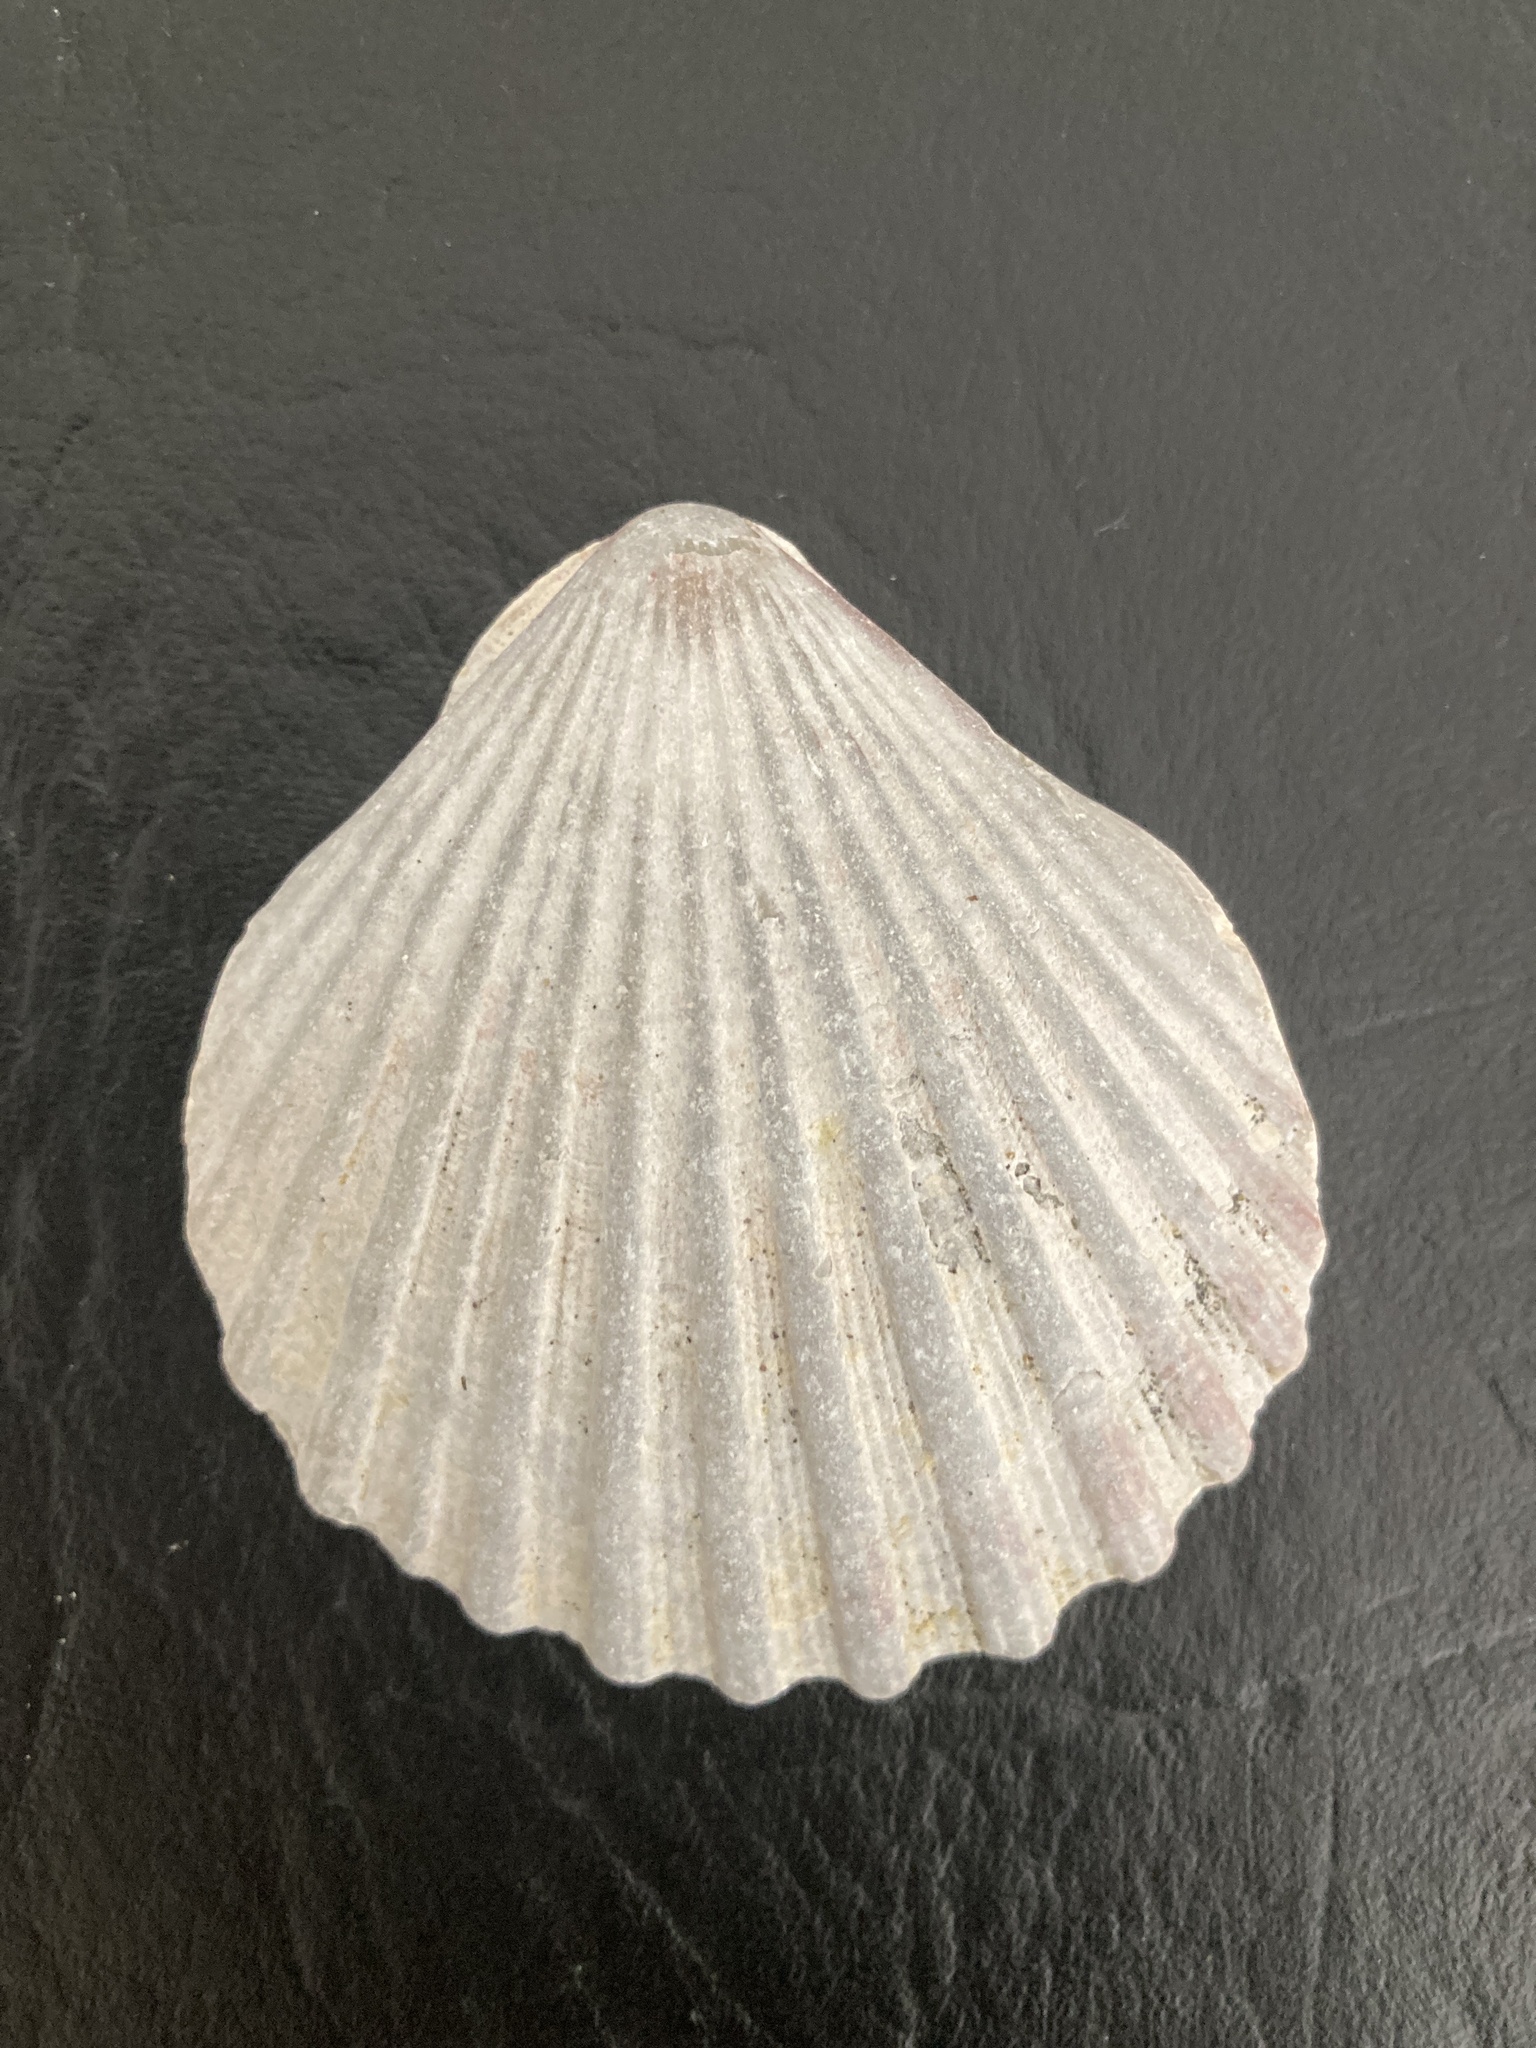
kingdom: Animalia
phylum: Mollusca
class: Bivalvia
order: Pectinida
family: Pectinidae
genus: Aequipecten
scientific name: Aequipecten tehuelchus
